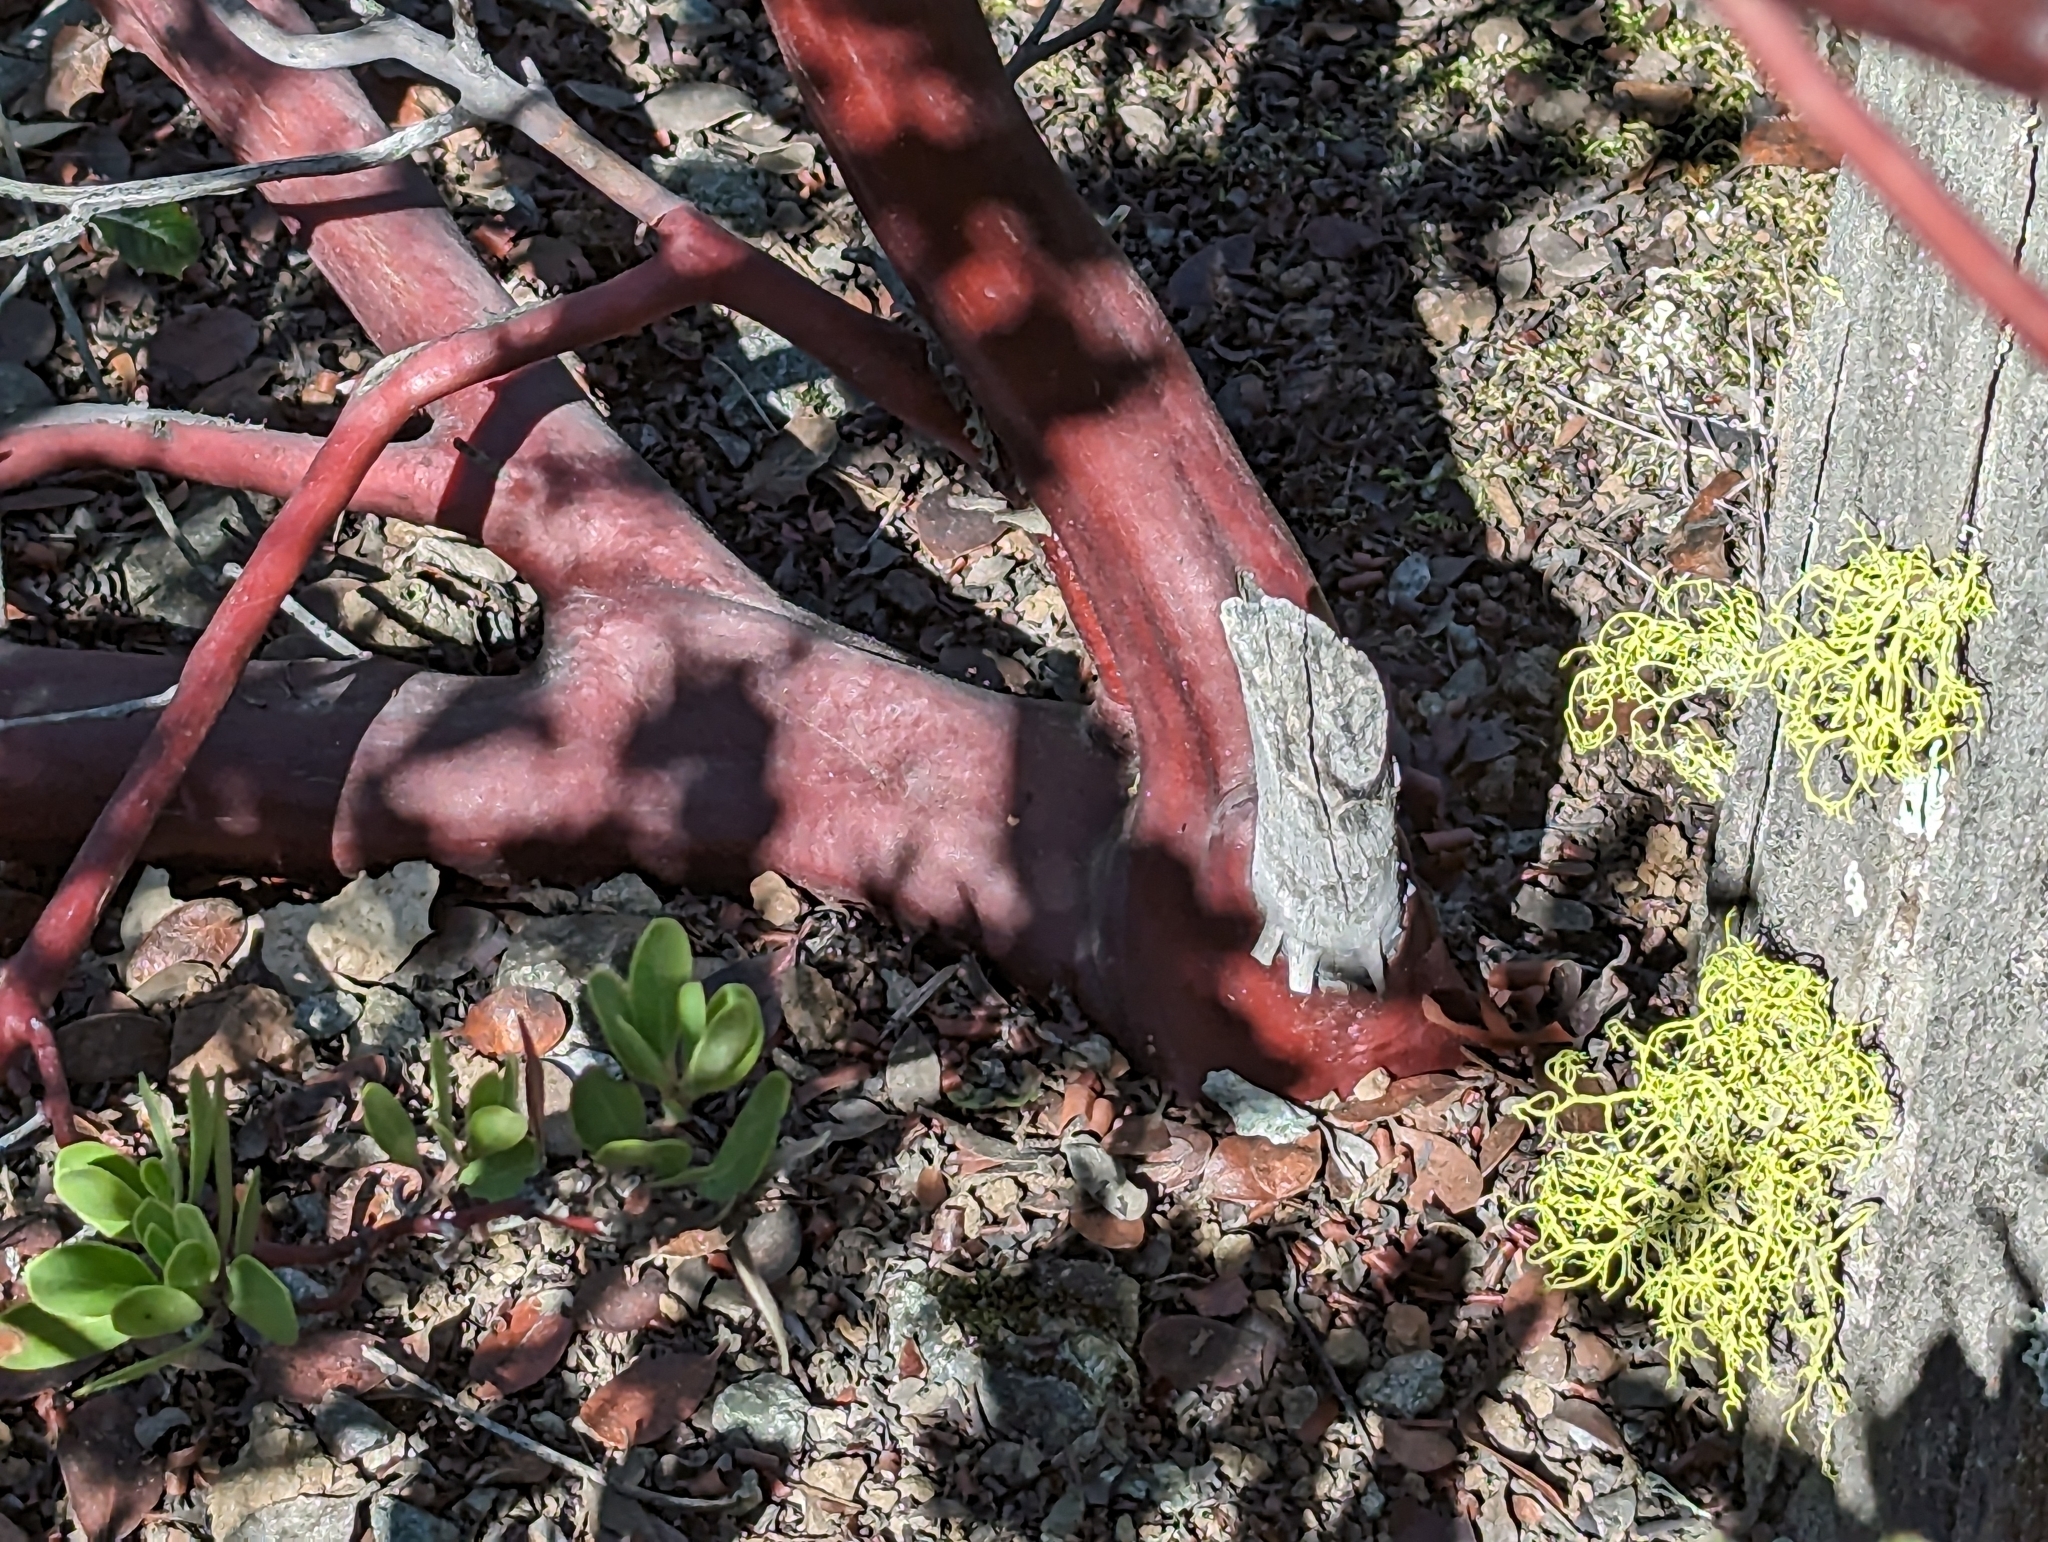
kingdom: Plantae
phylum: Tracheophyta
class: Magnoliopsida
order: Ericales
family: Ericaceae
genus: Arctostaphylos
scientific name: Arctostaphylos bakeri
